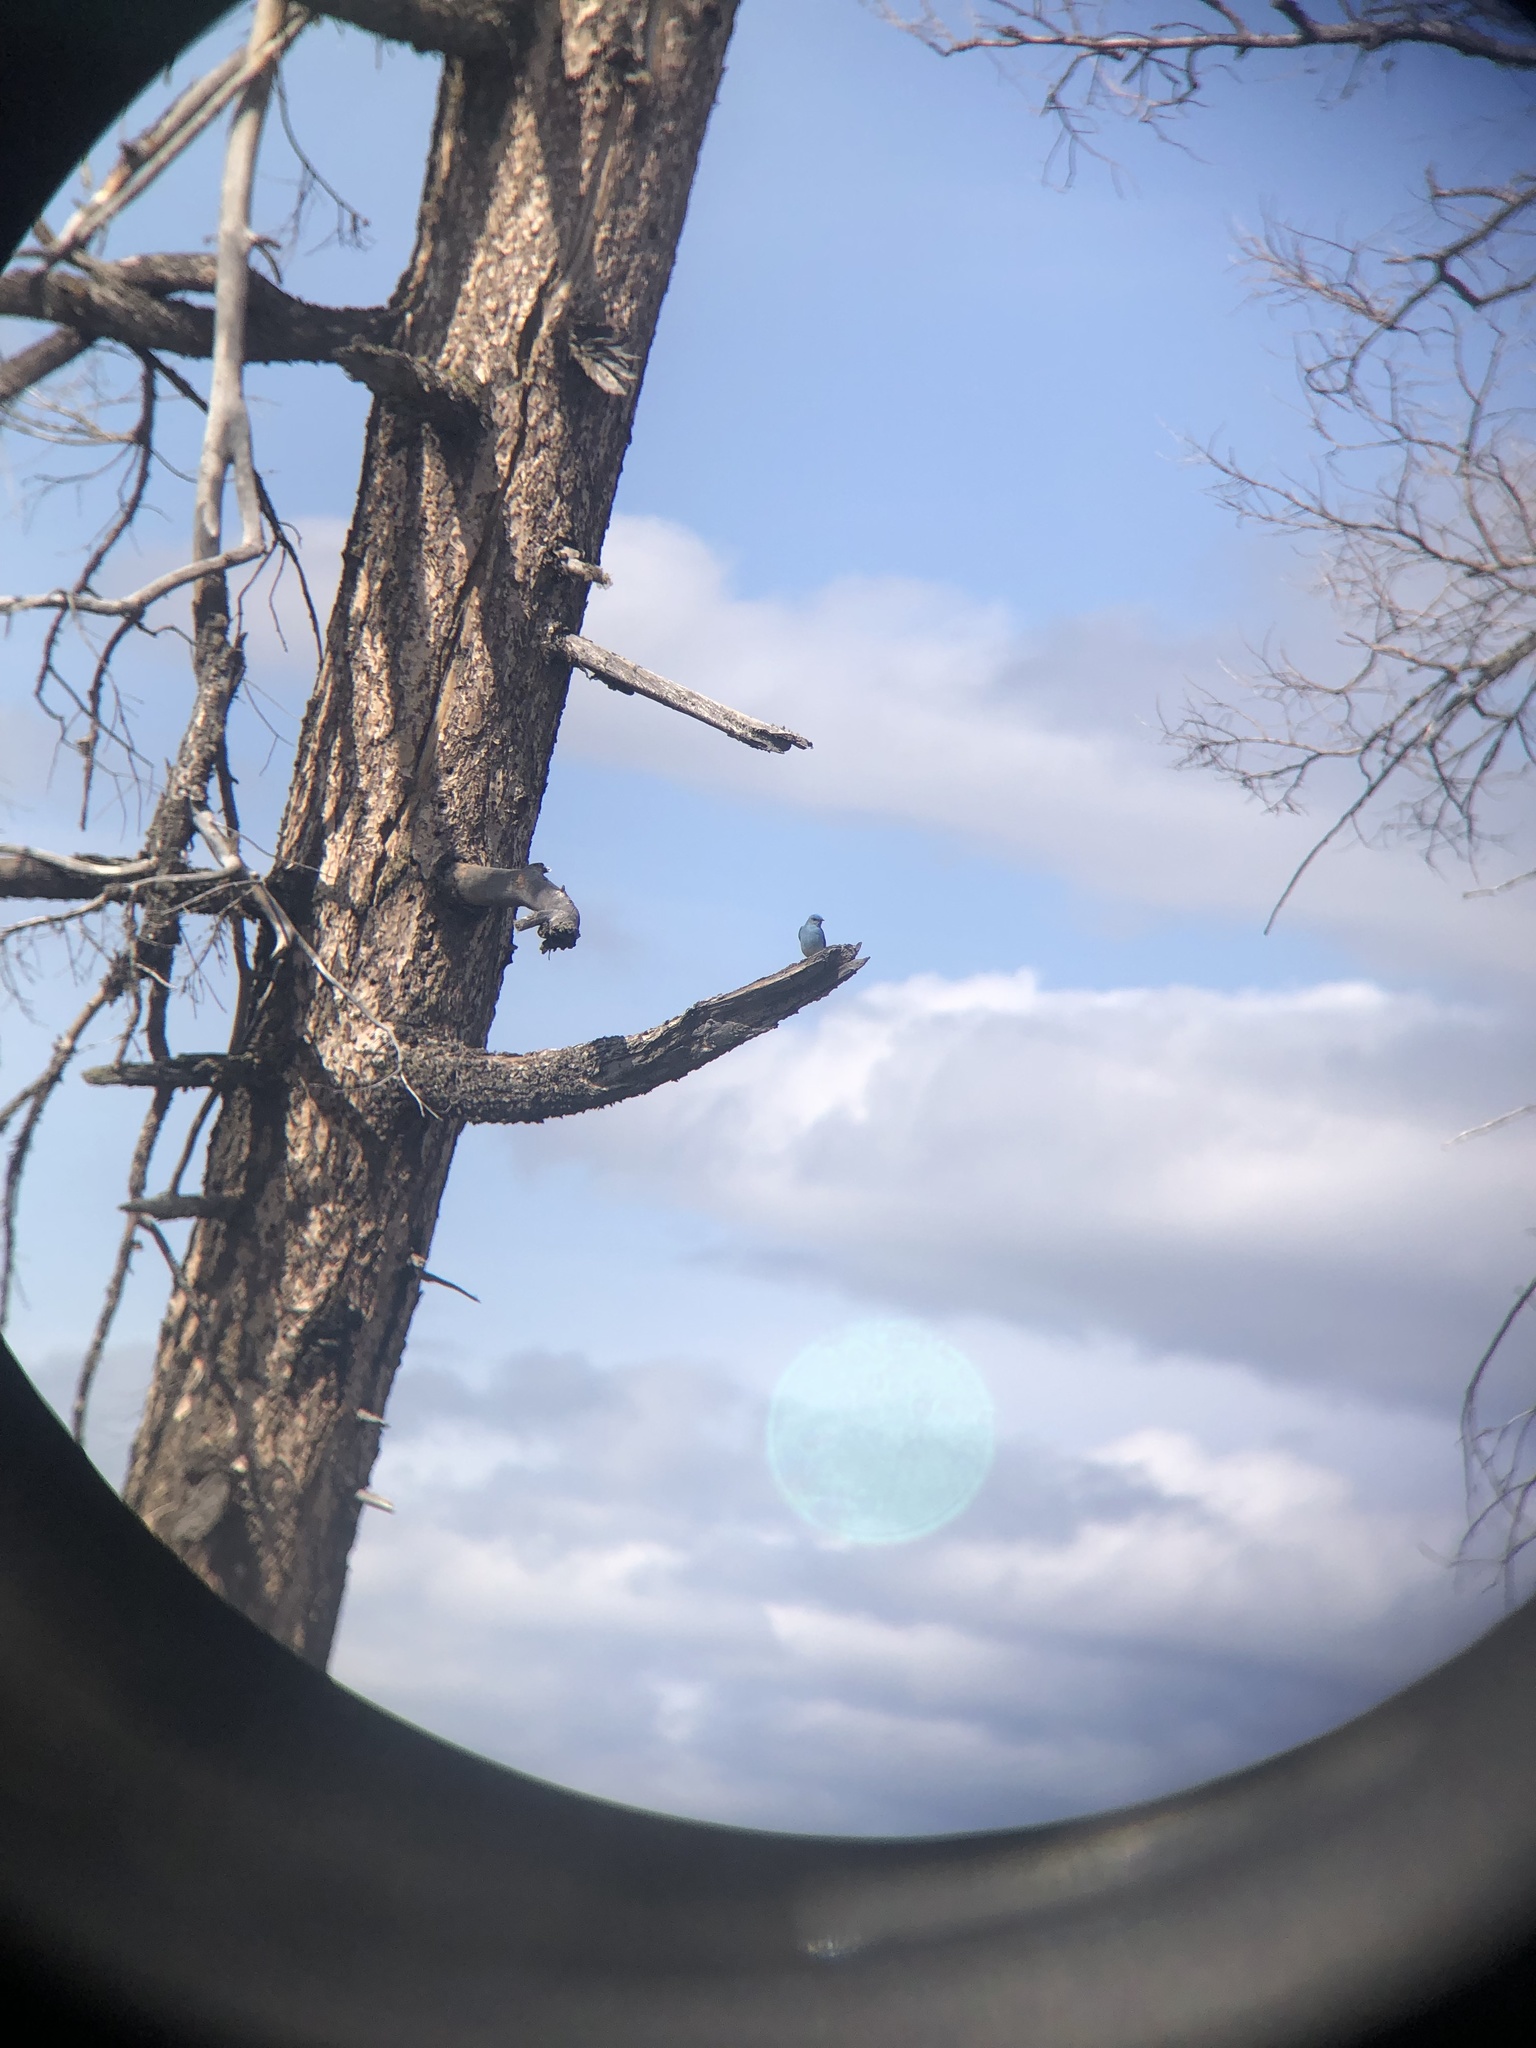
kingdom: Animalia
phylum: Chordata
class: Aves
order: Passeriformes
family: Turdidae
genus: Sialia
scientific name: Sialia currucoides
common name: Mountain bluebird
